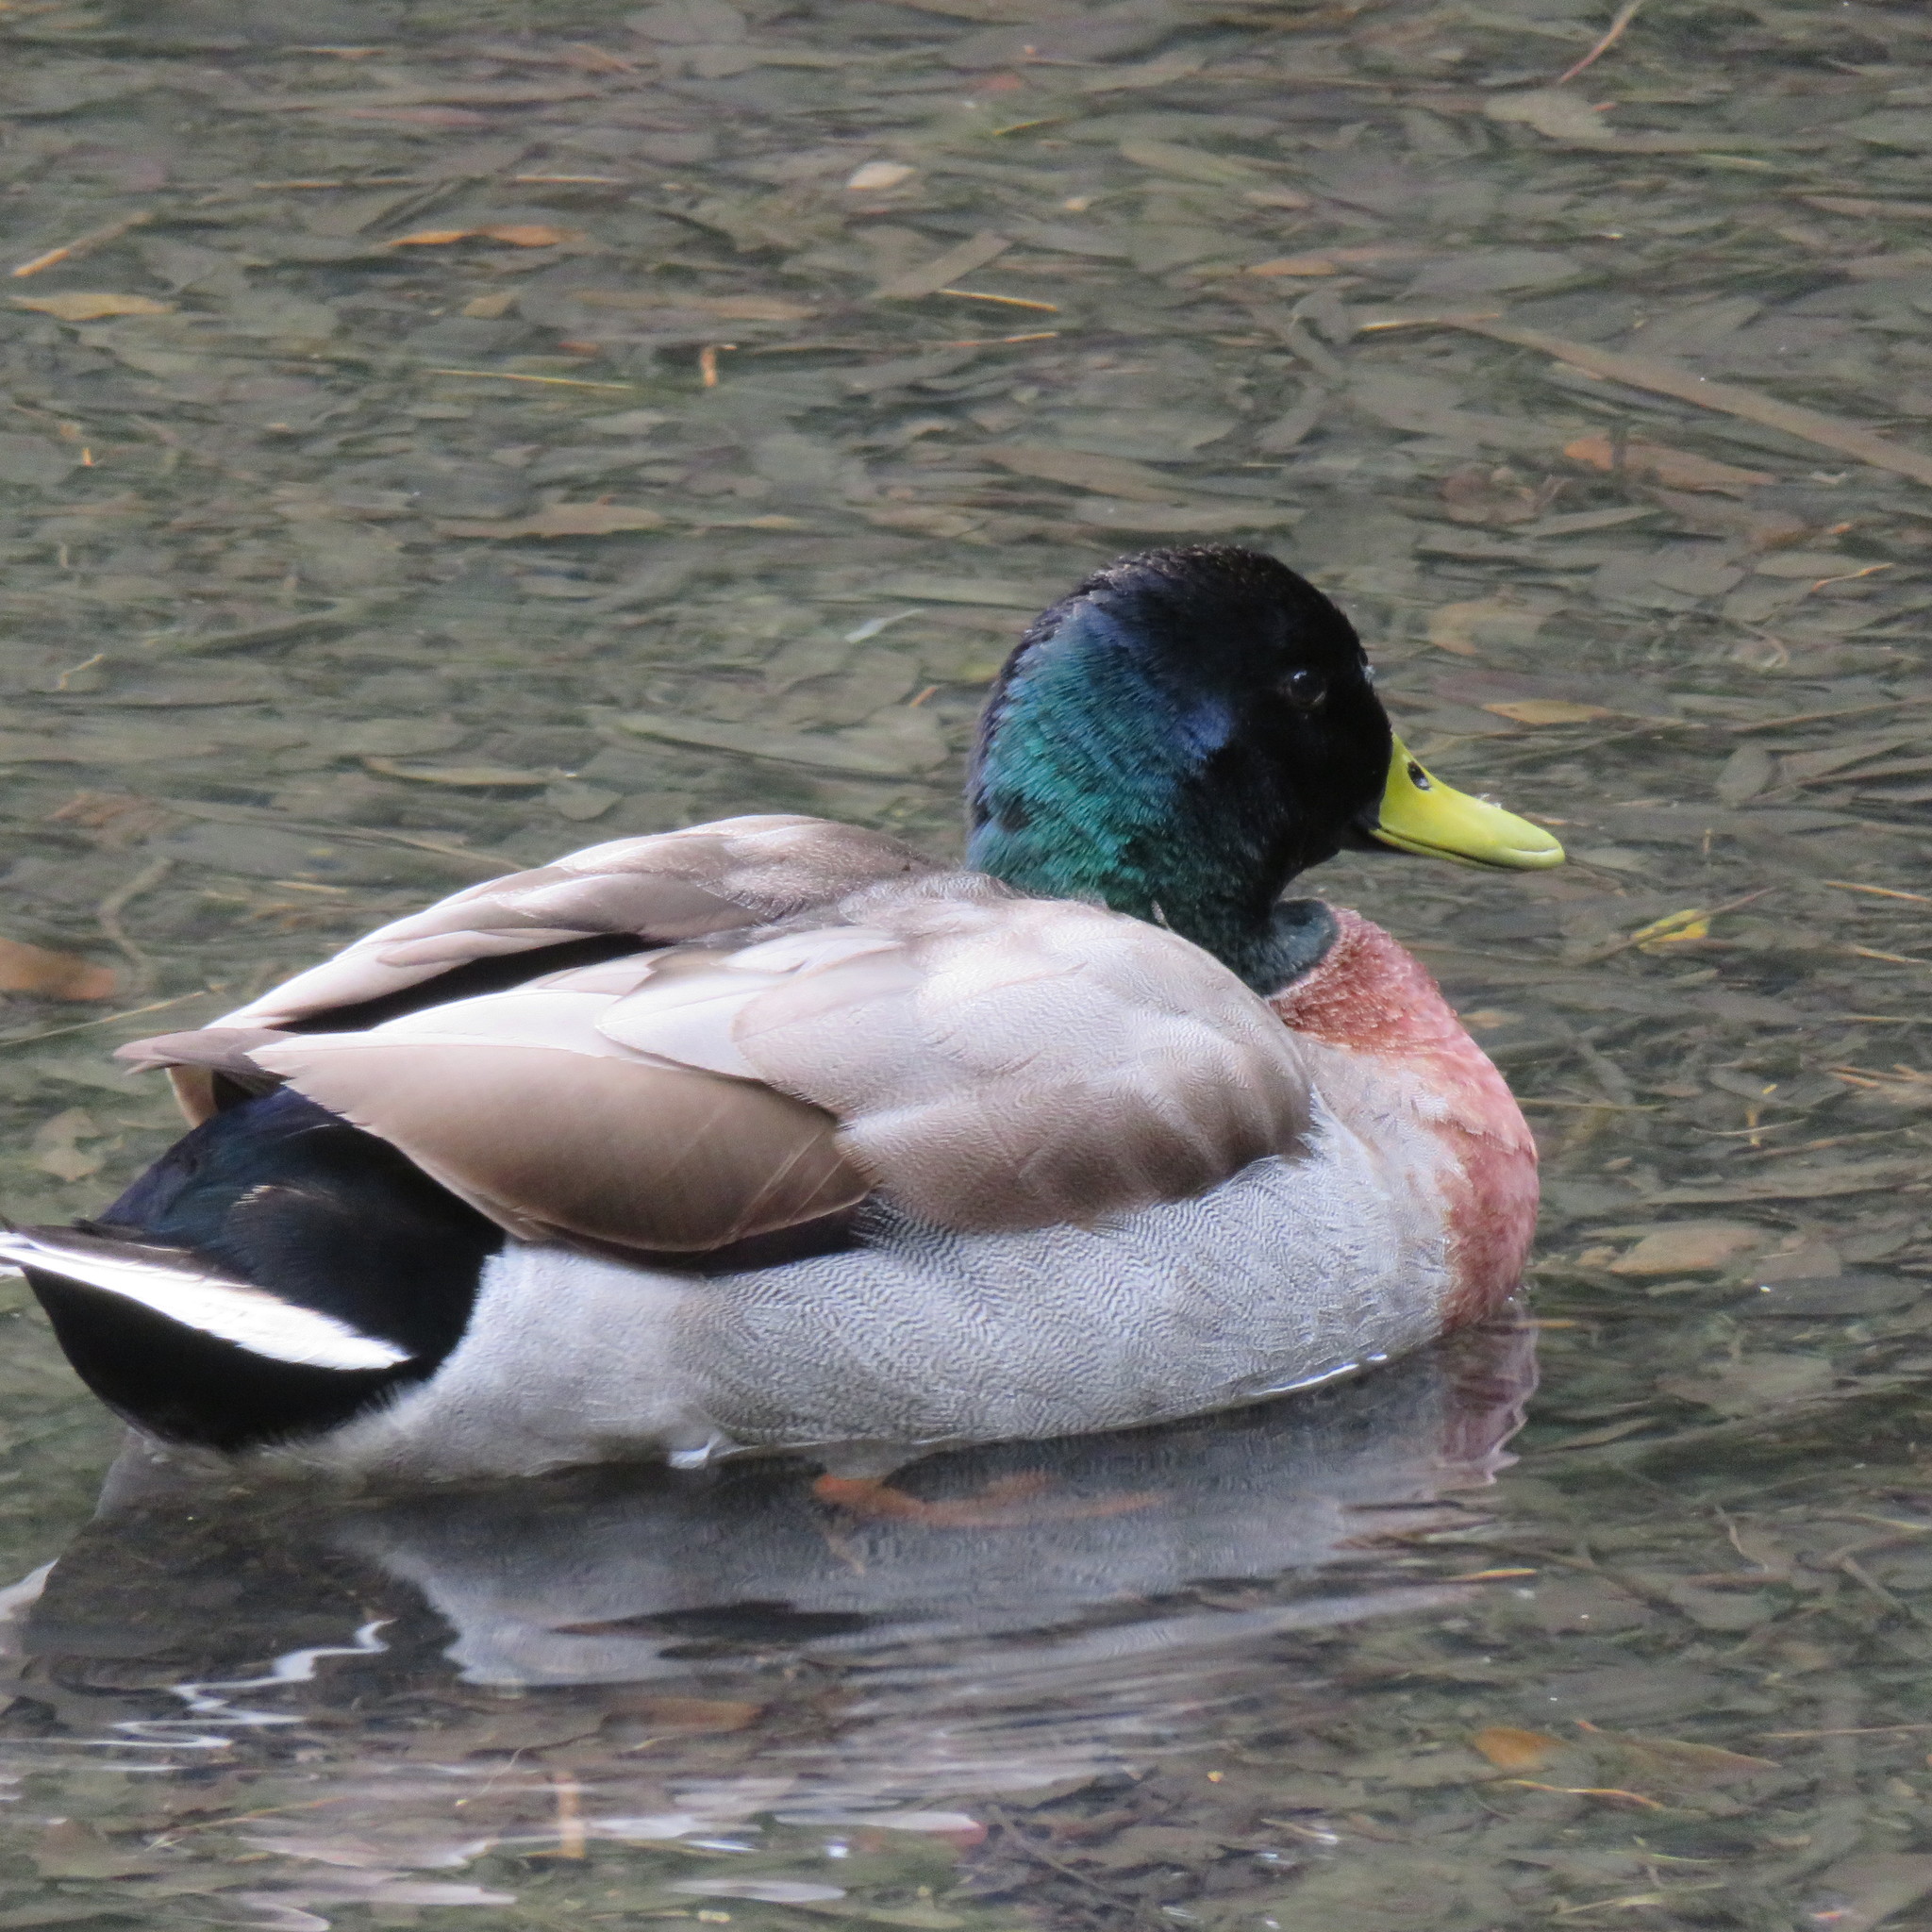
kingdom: Animalia
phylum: Chordata
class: Aves
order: Anseriformes
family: Anatidae
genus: Anas
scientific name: Anas platyrhynchos
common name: Mallard
